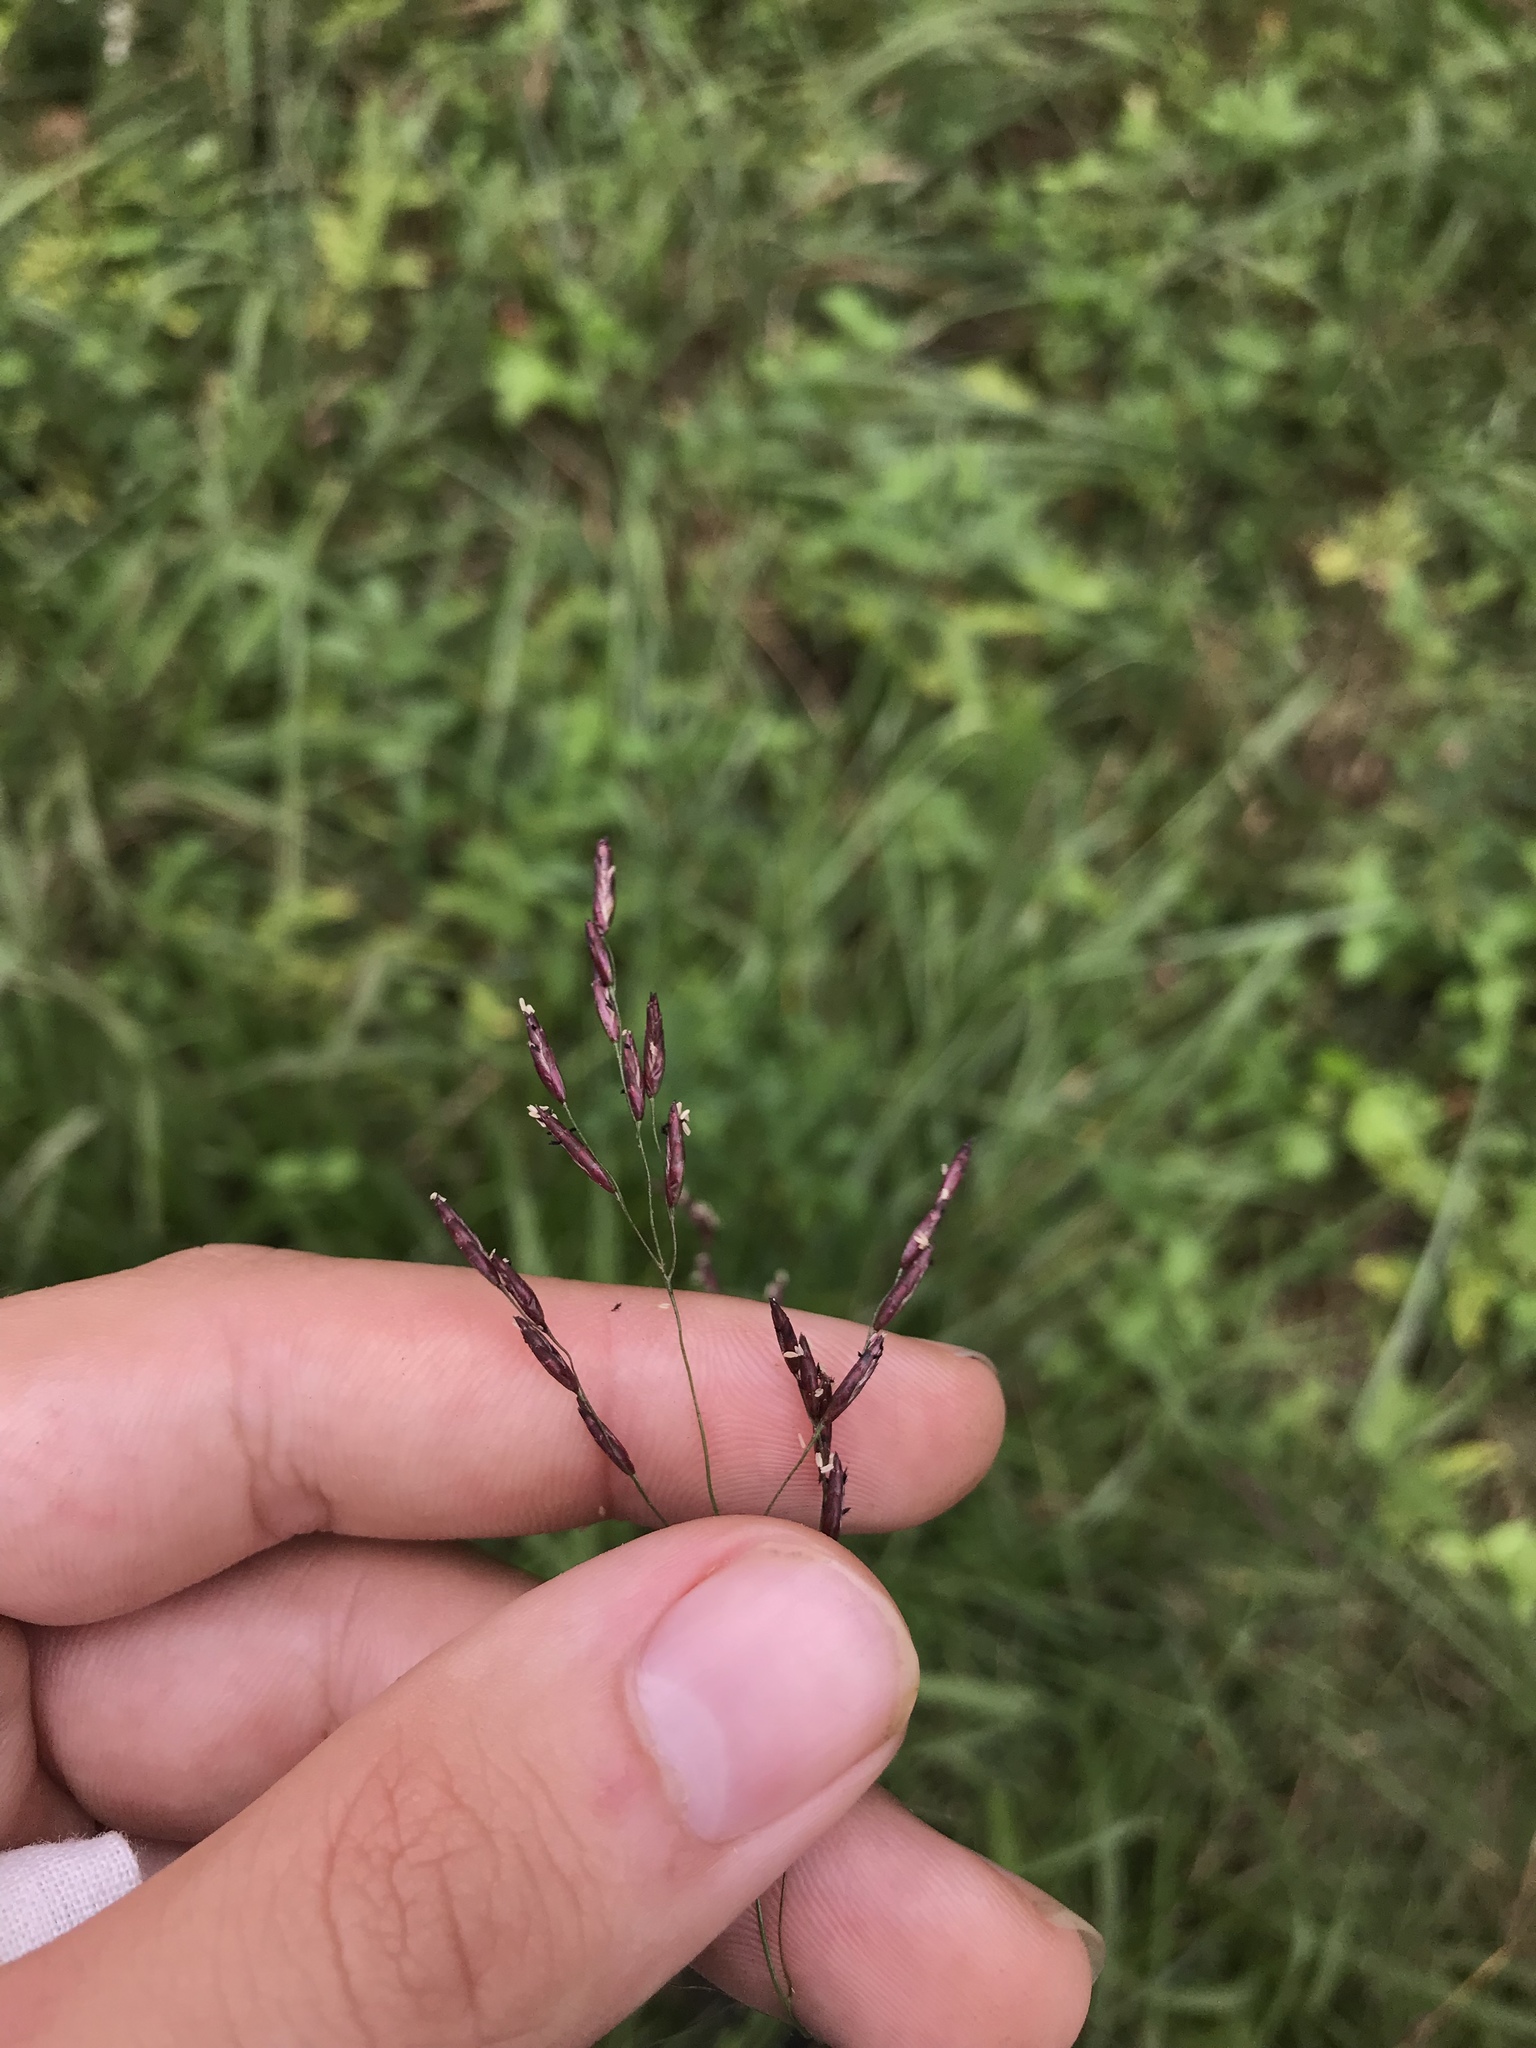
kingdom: Plantae
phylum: Tracheophyta
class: Liliopsida
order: Poales
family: Poaceae
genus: Tridens
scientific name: Tridens flavus
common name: Purpletop
